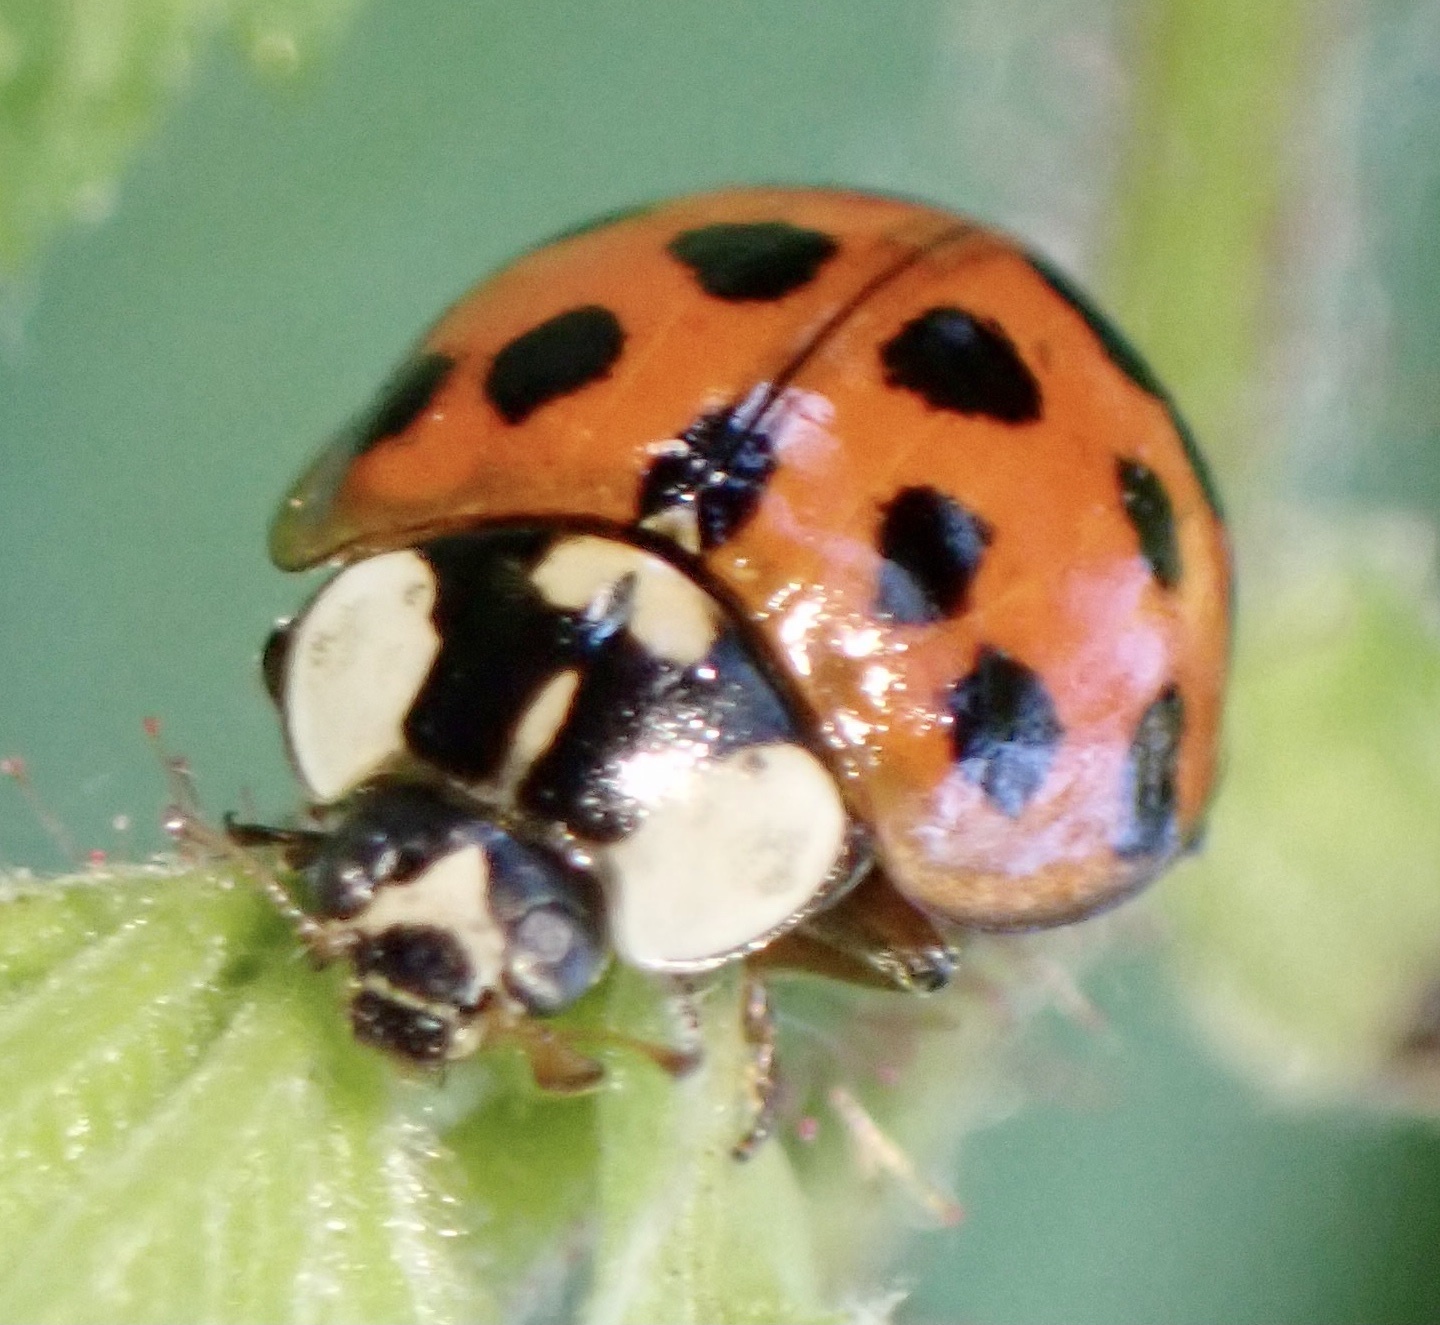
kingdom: Animalia
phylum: Arthropoda
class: Insecta
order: Coleoptera
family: Coccinellidae
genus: Harmonia
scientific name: Harmonia axyridis
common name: Harlequin ladybird
